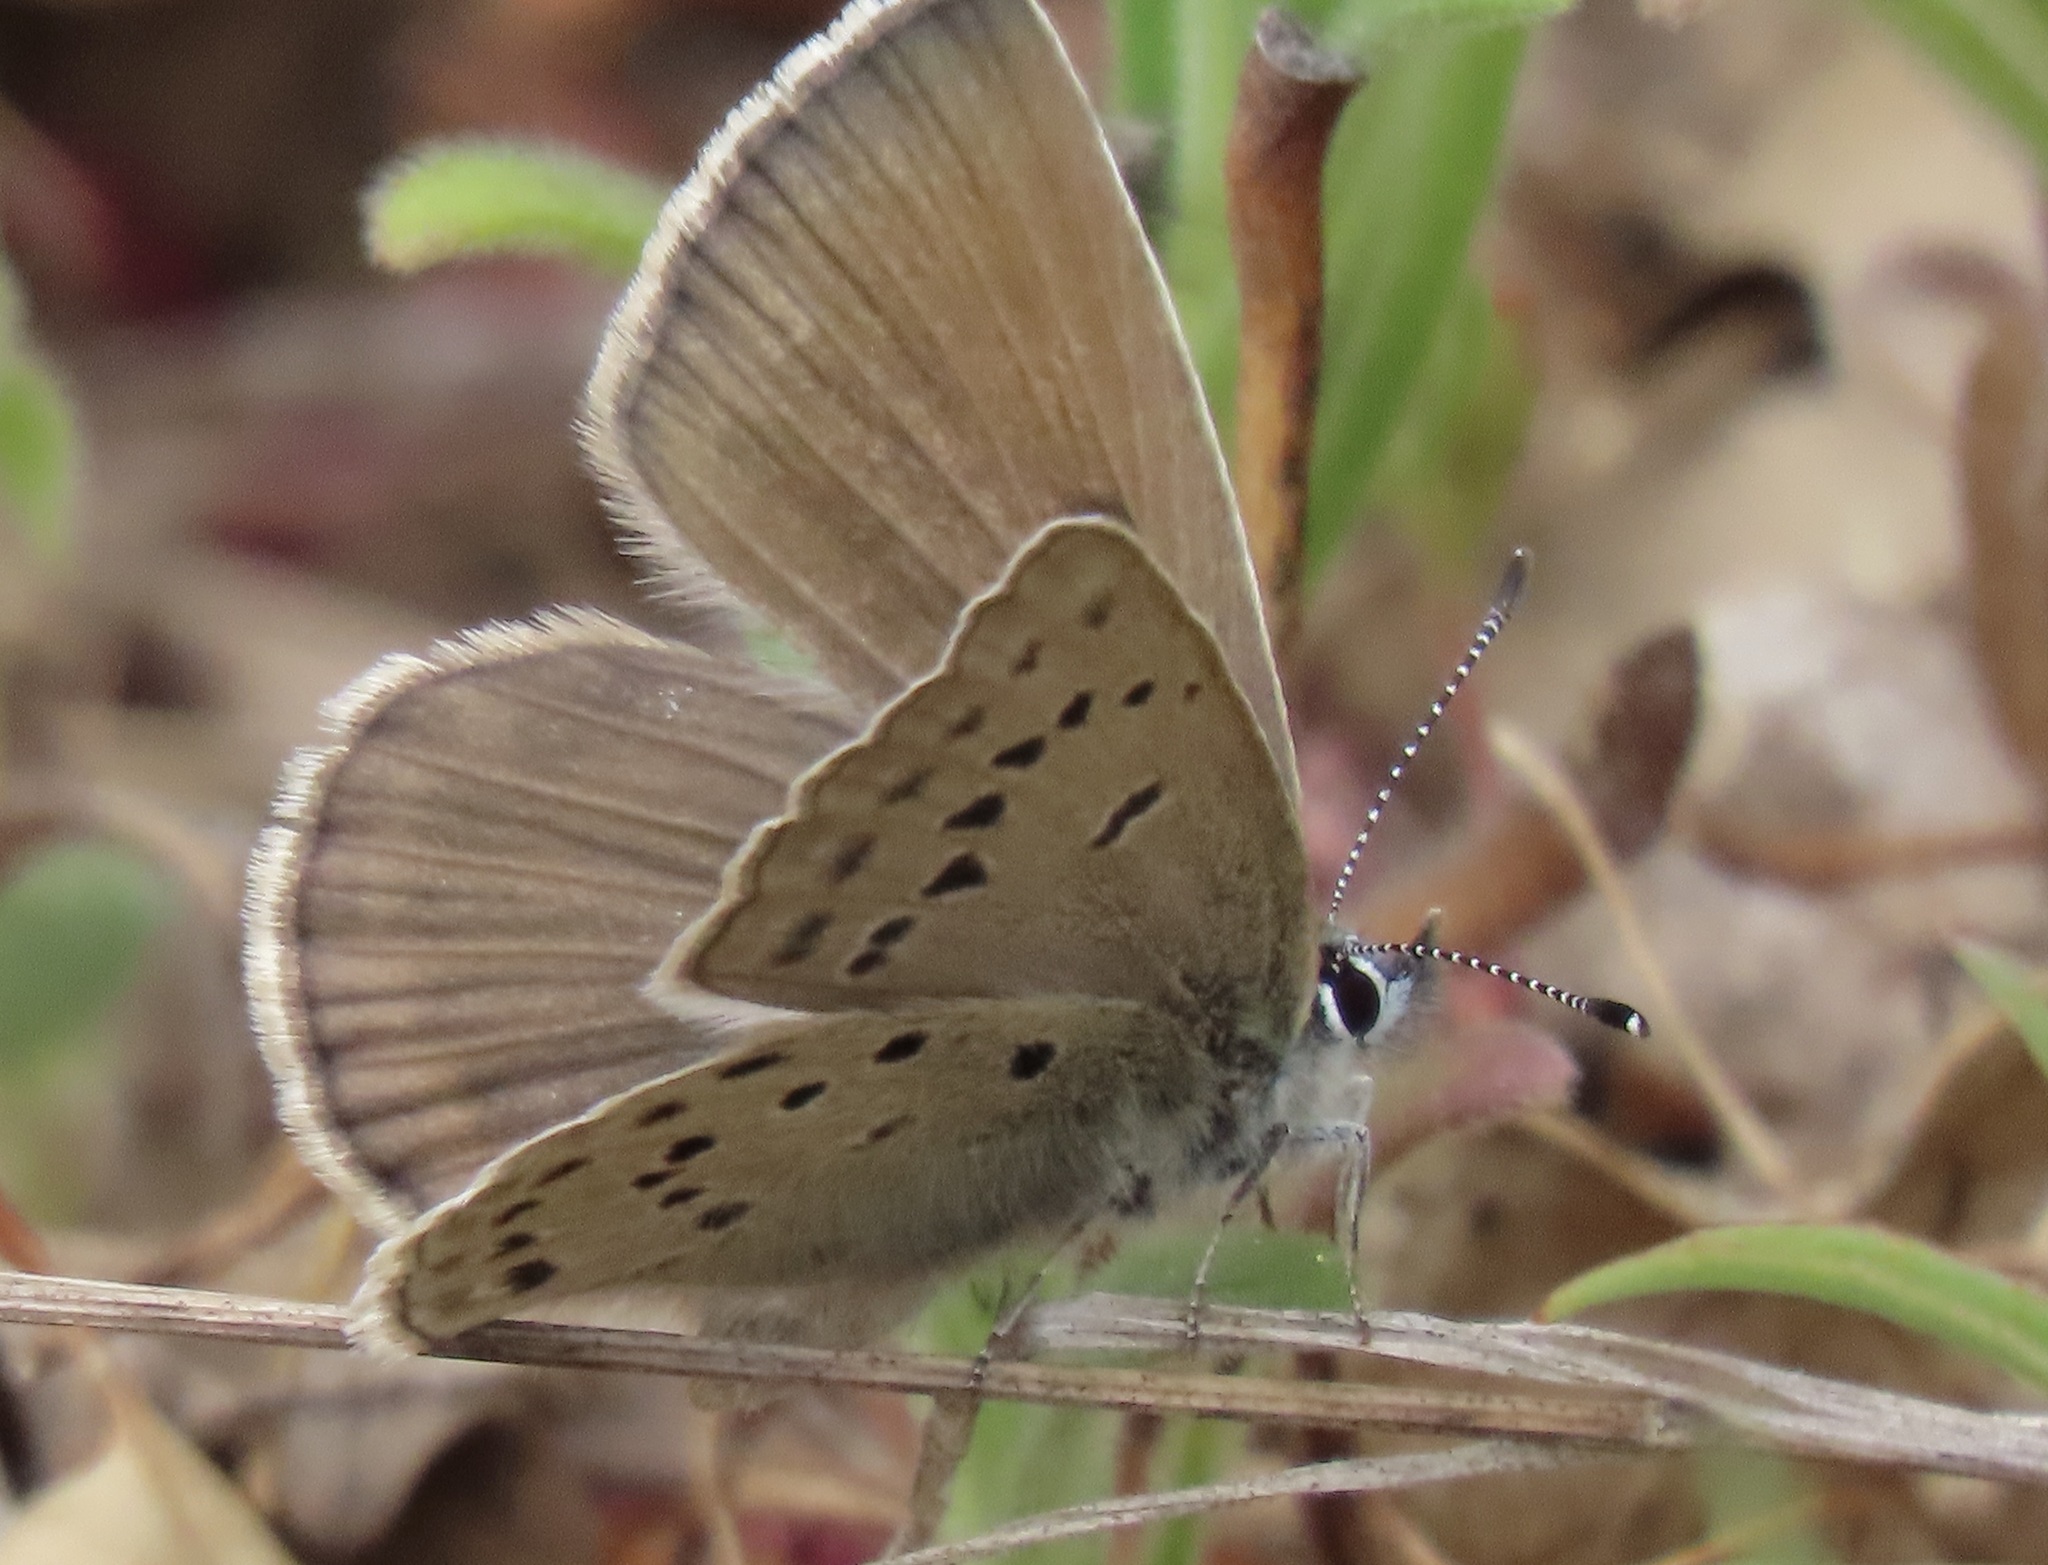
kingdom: Animalia
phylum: Arthropoda
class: Insecta
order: Lepidoptera
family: Lycaenidae
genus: Icaricia
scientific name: Icaricia icarioides
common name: Boisduval's blue
